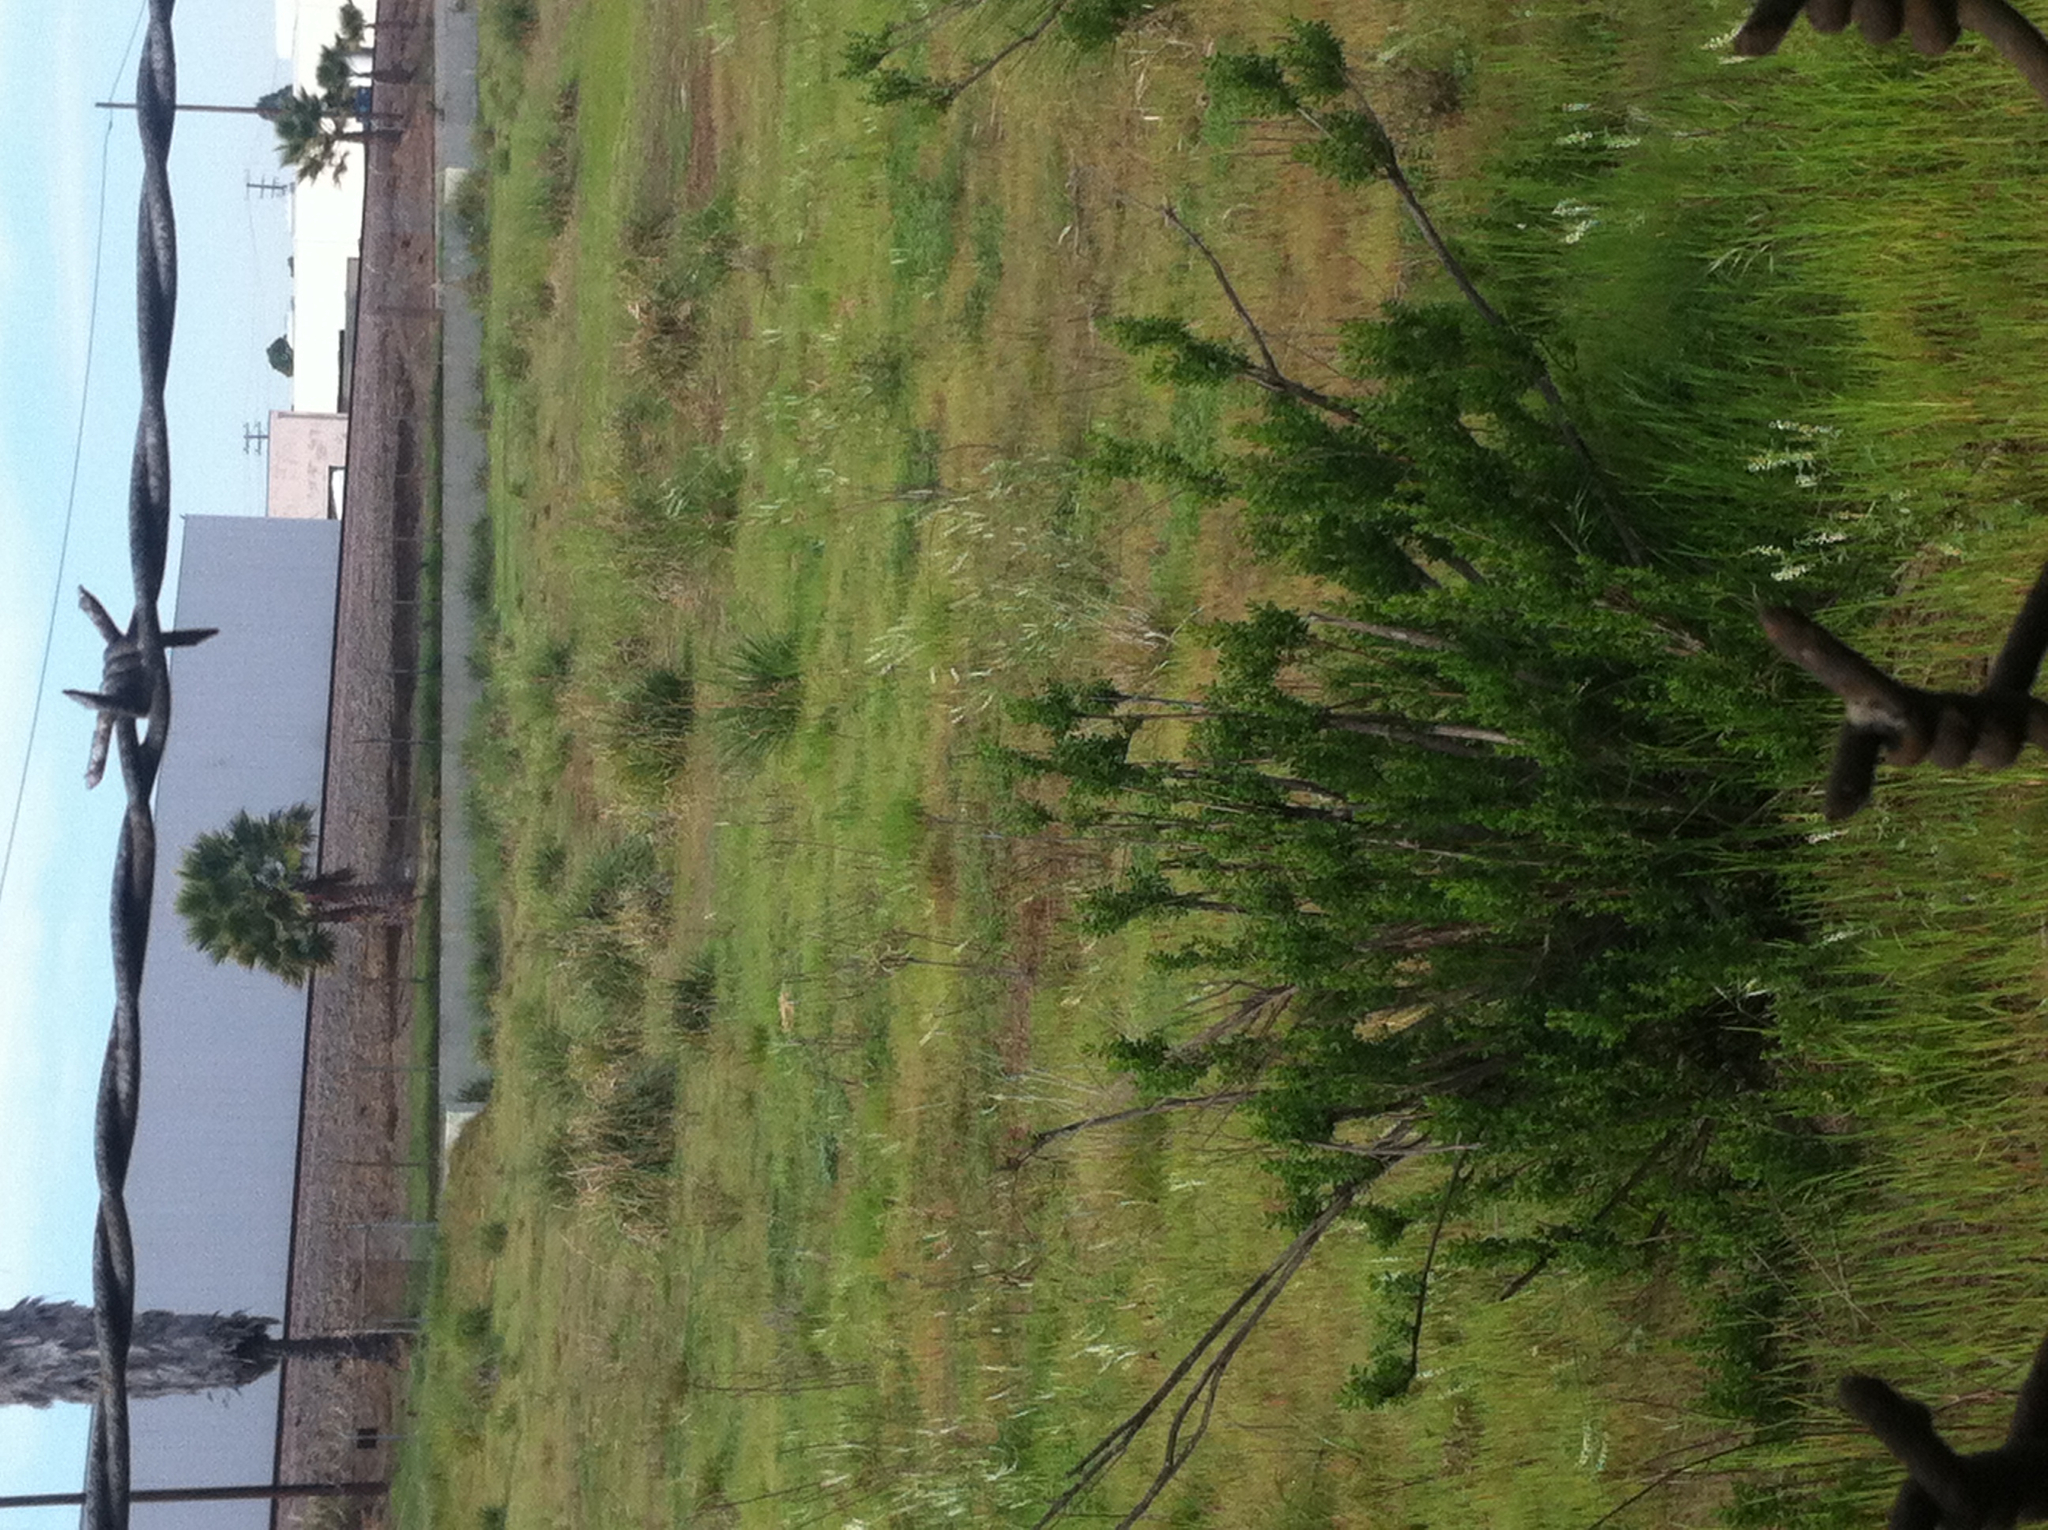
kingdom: Plantae
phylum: Tracheophyta
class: Magnoliopsida
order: Asterales
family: Asteraceae
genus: Baccharis
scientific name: Baccharis pilularis
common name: Coyotebrush
